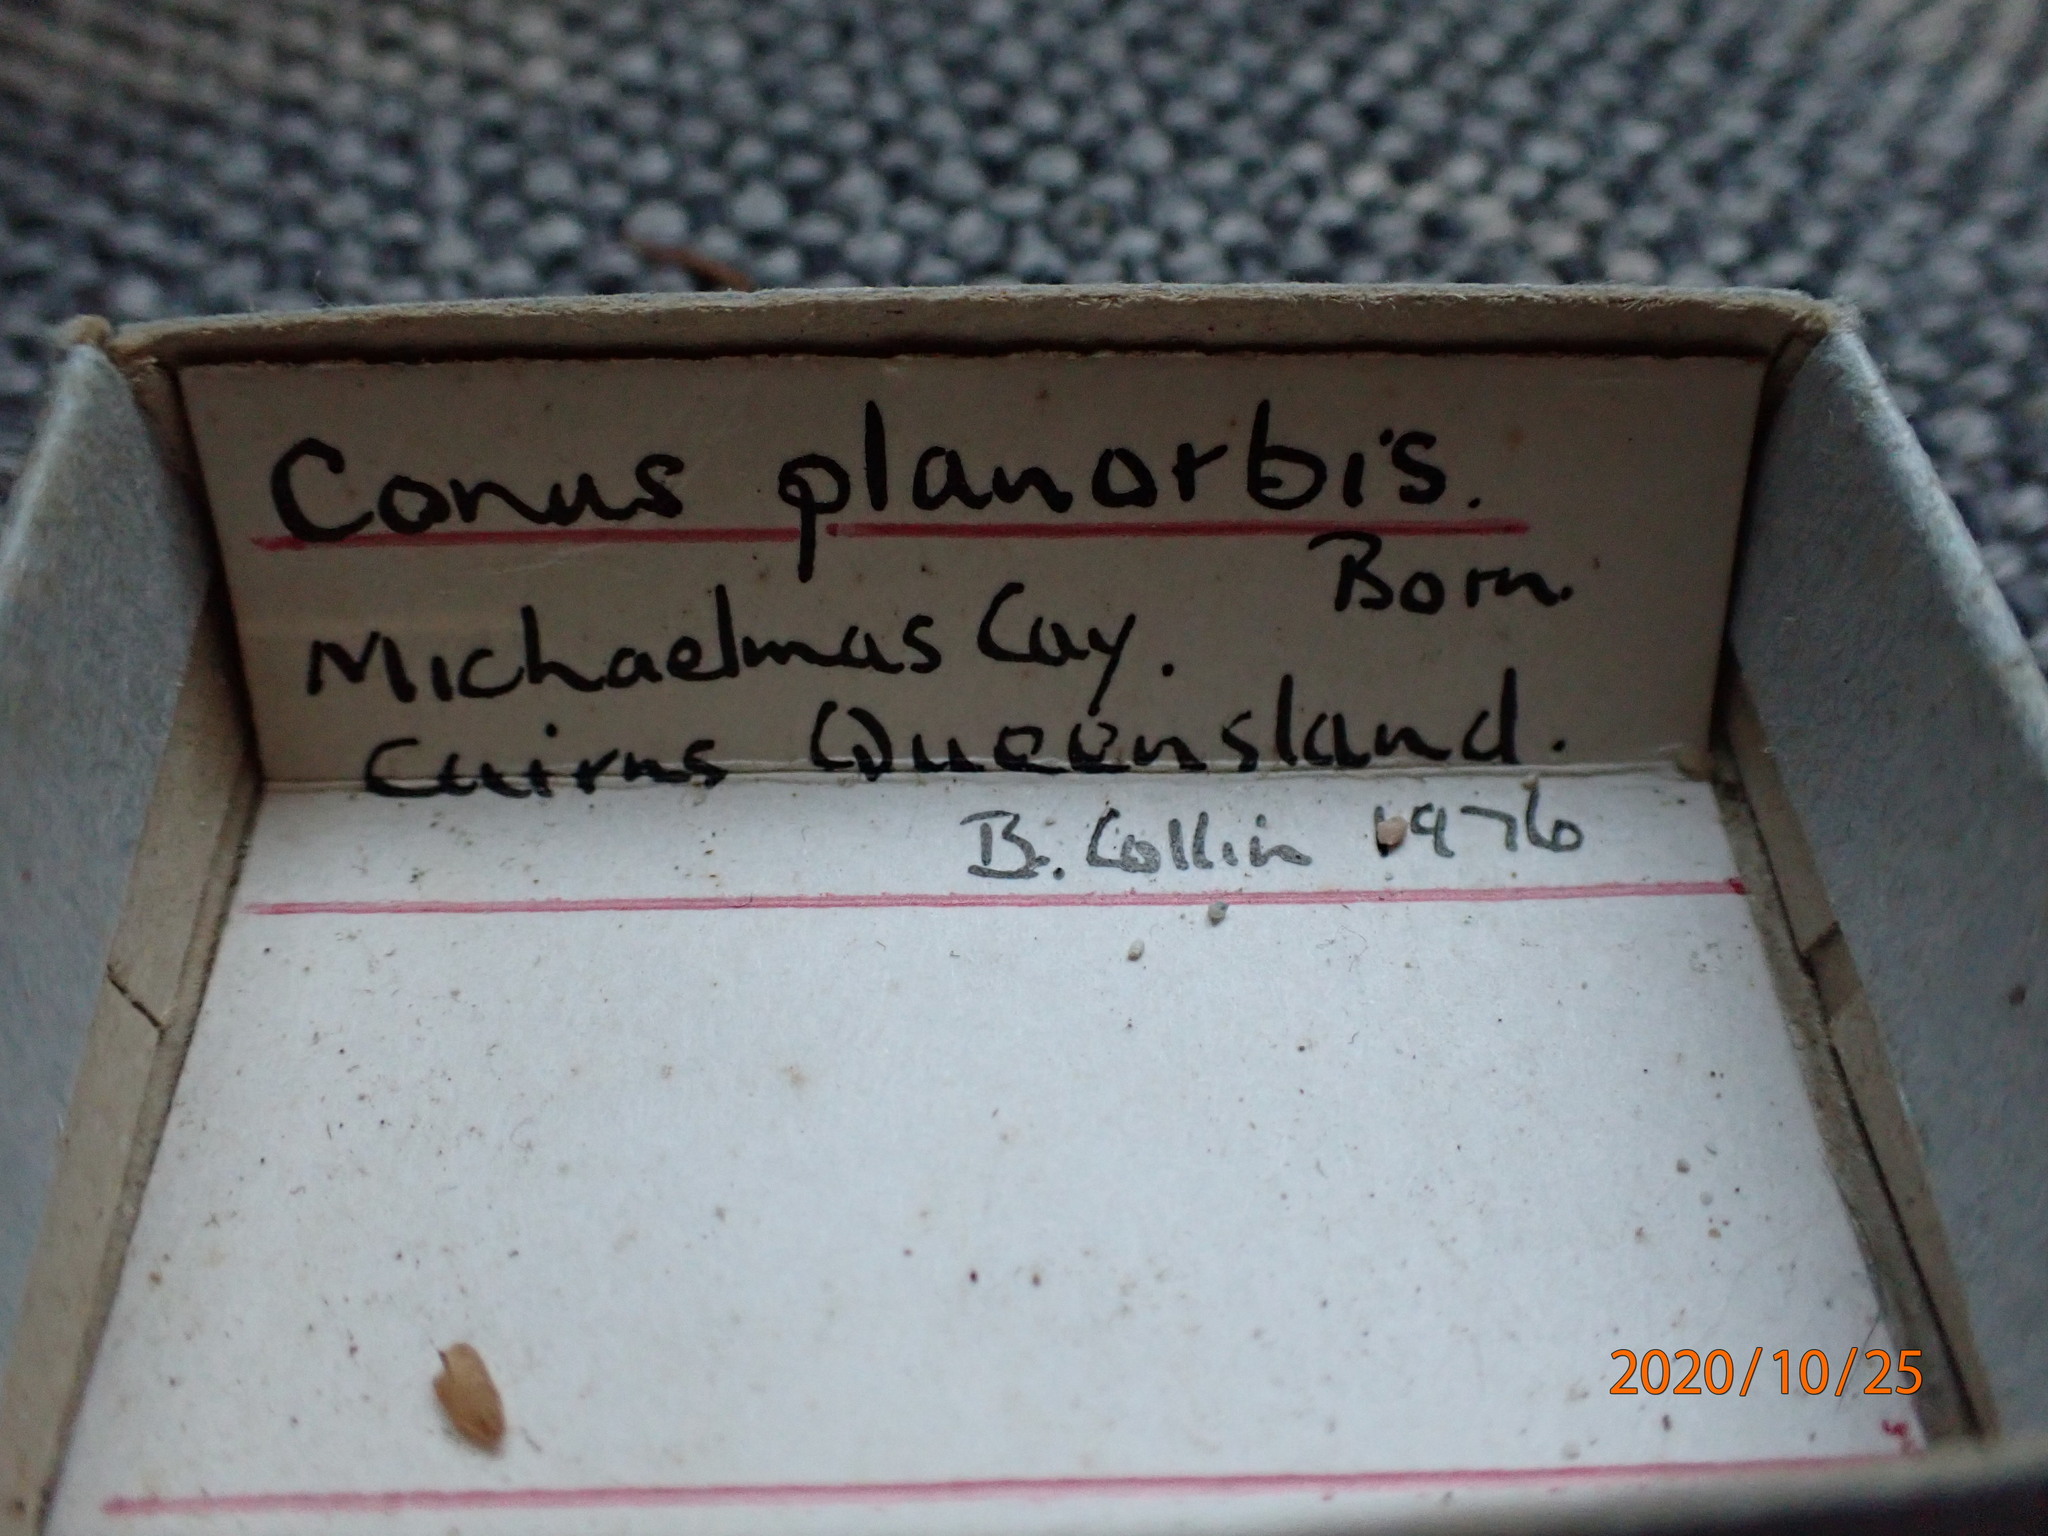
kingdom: Animalia
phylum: Mollusca
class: Gastropoda
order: Neogastropoda
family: Conidae
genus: Conus
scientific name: Conus emaciatus
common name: False virgin cone
